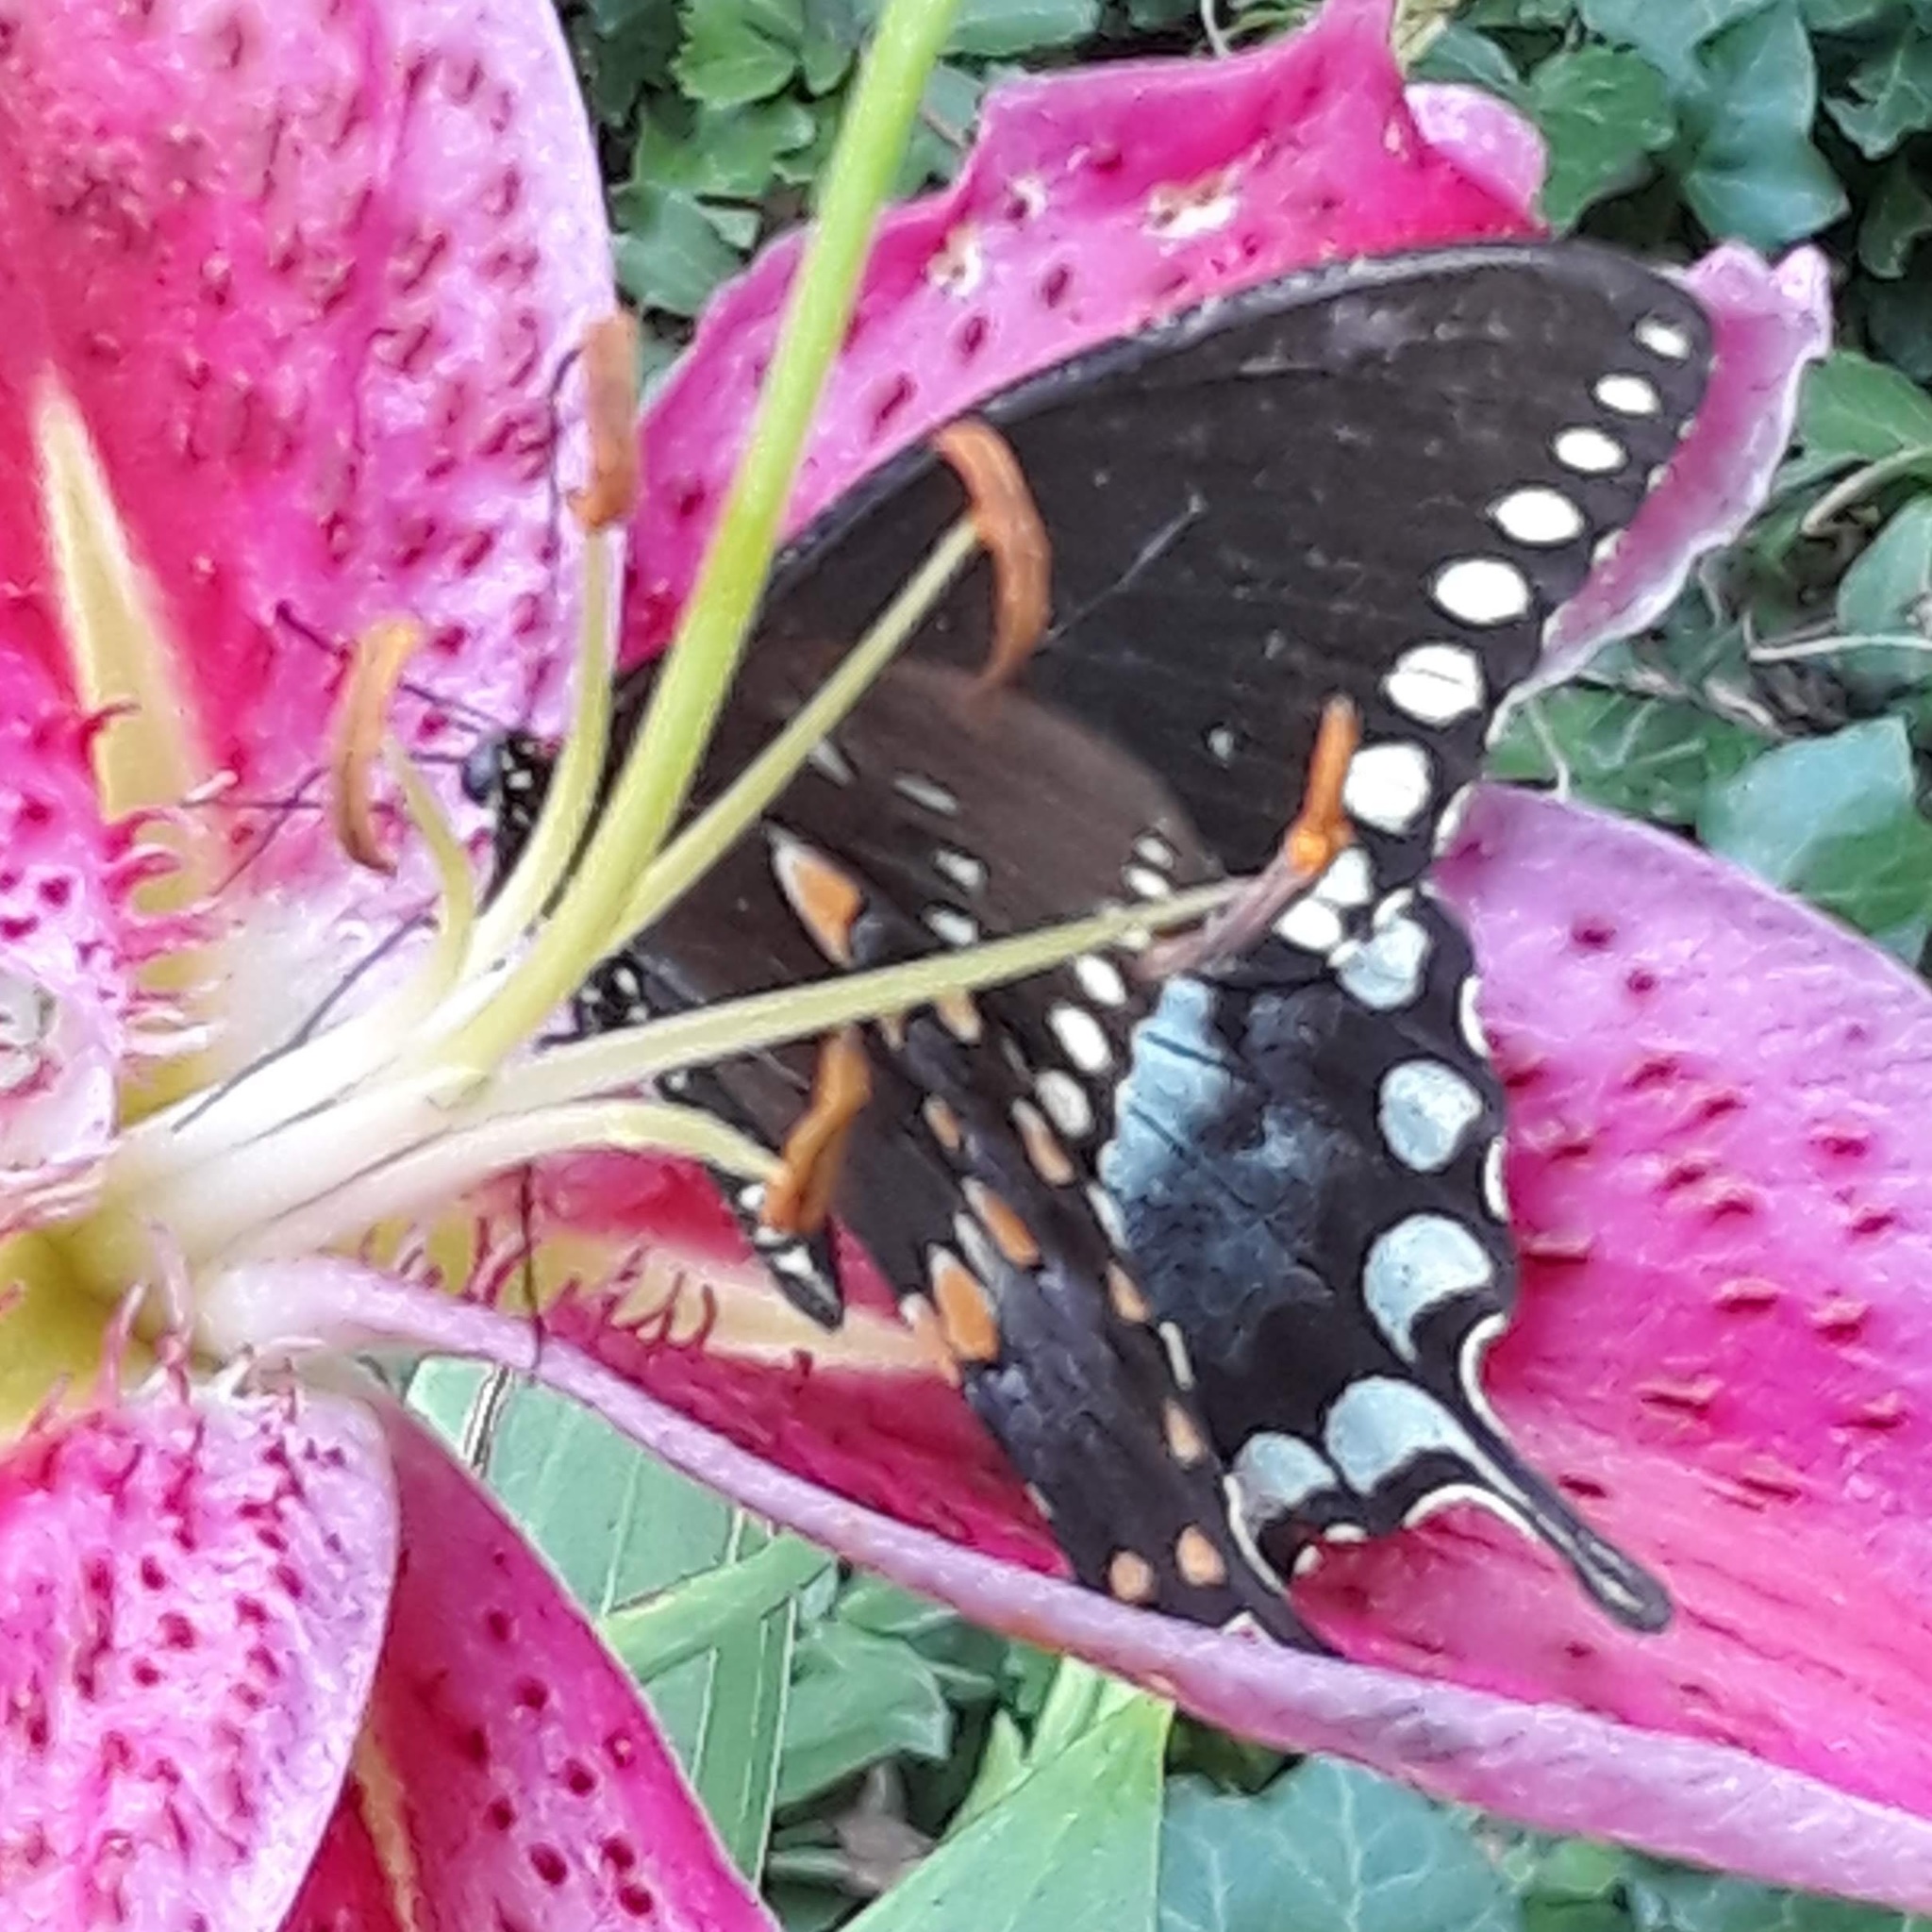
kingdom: Animalia
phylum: Arthropoda
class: Insecta
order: Lepidoptera
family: Papilionidae
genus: Papilio
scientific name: Papilio troilus
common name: Spicebush swallowtail
